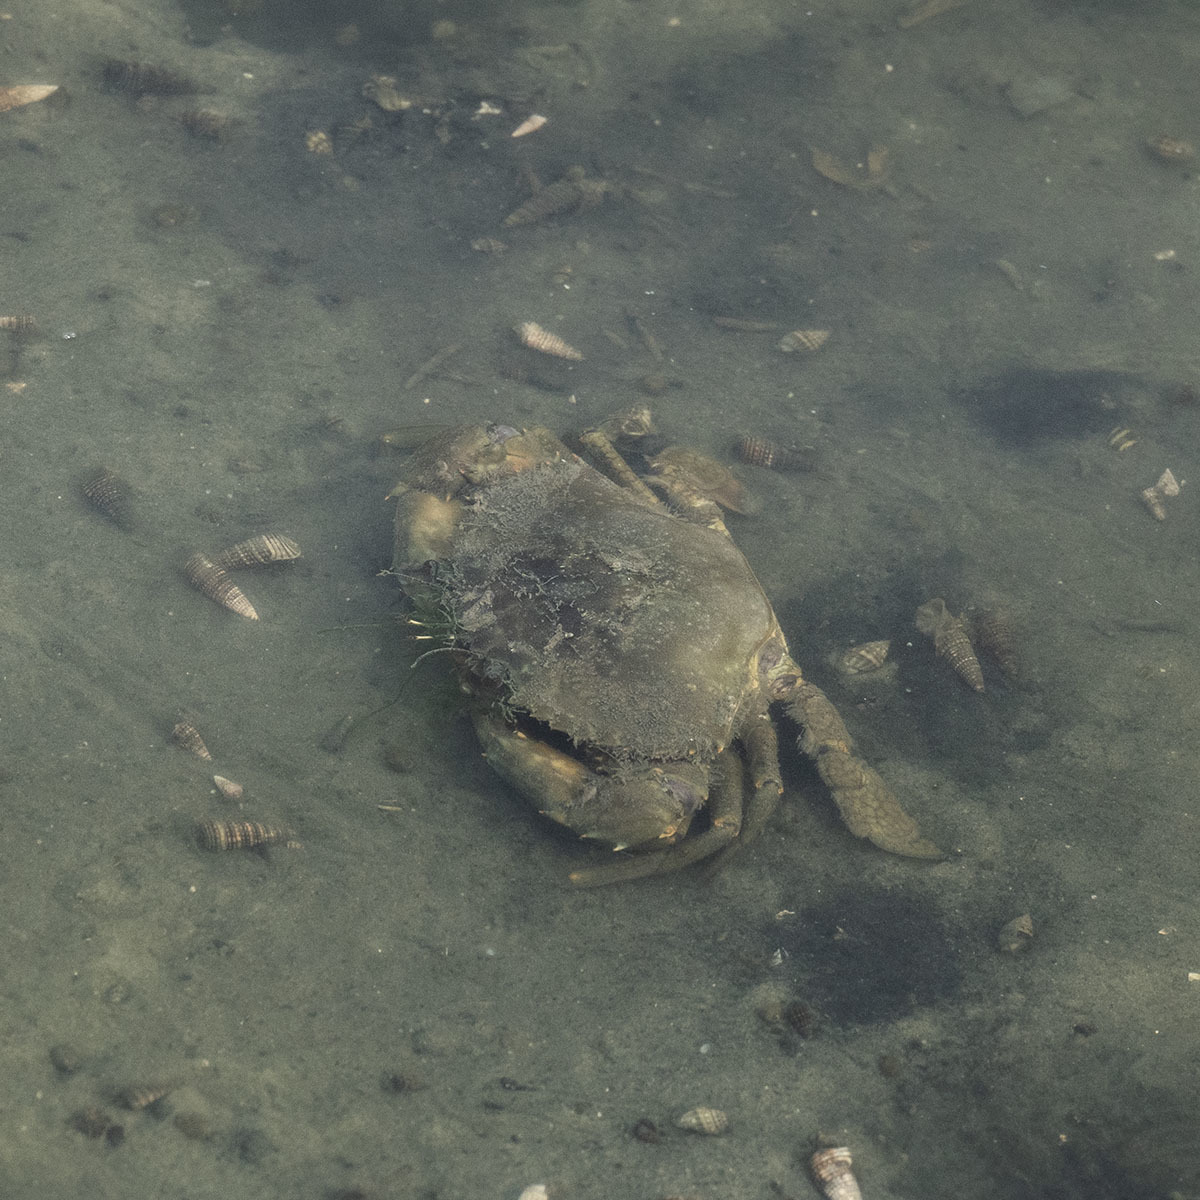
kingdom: Animalia
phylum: Arthropoda
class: Malacostraca
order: Decapoda
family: Portunidae
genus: Scylla
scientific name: Scylla serrata
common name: Giant mud crab
